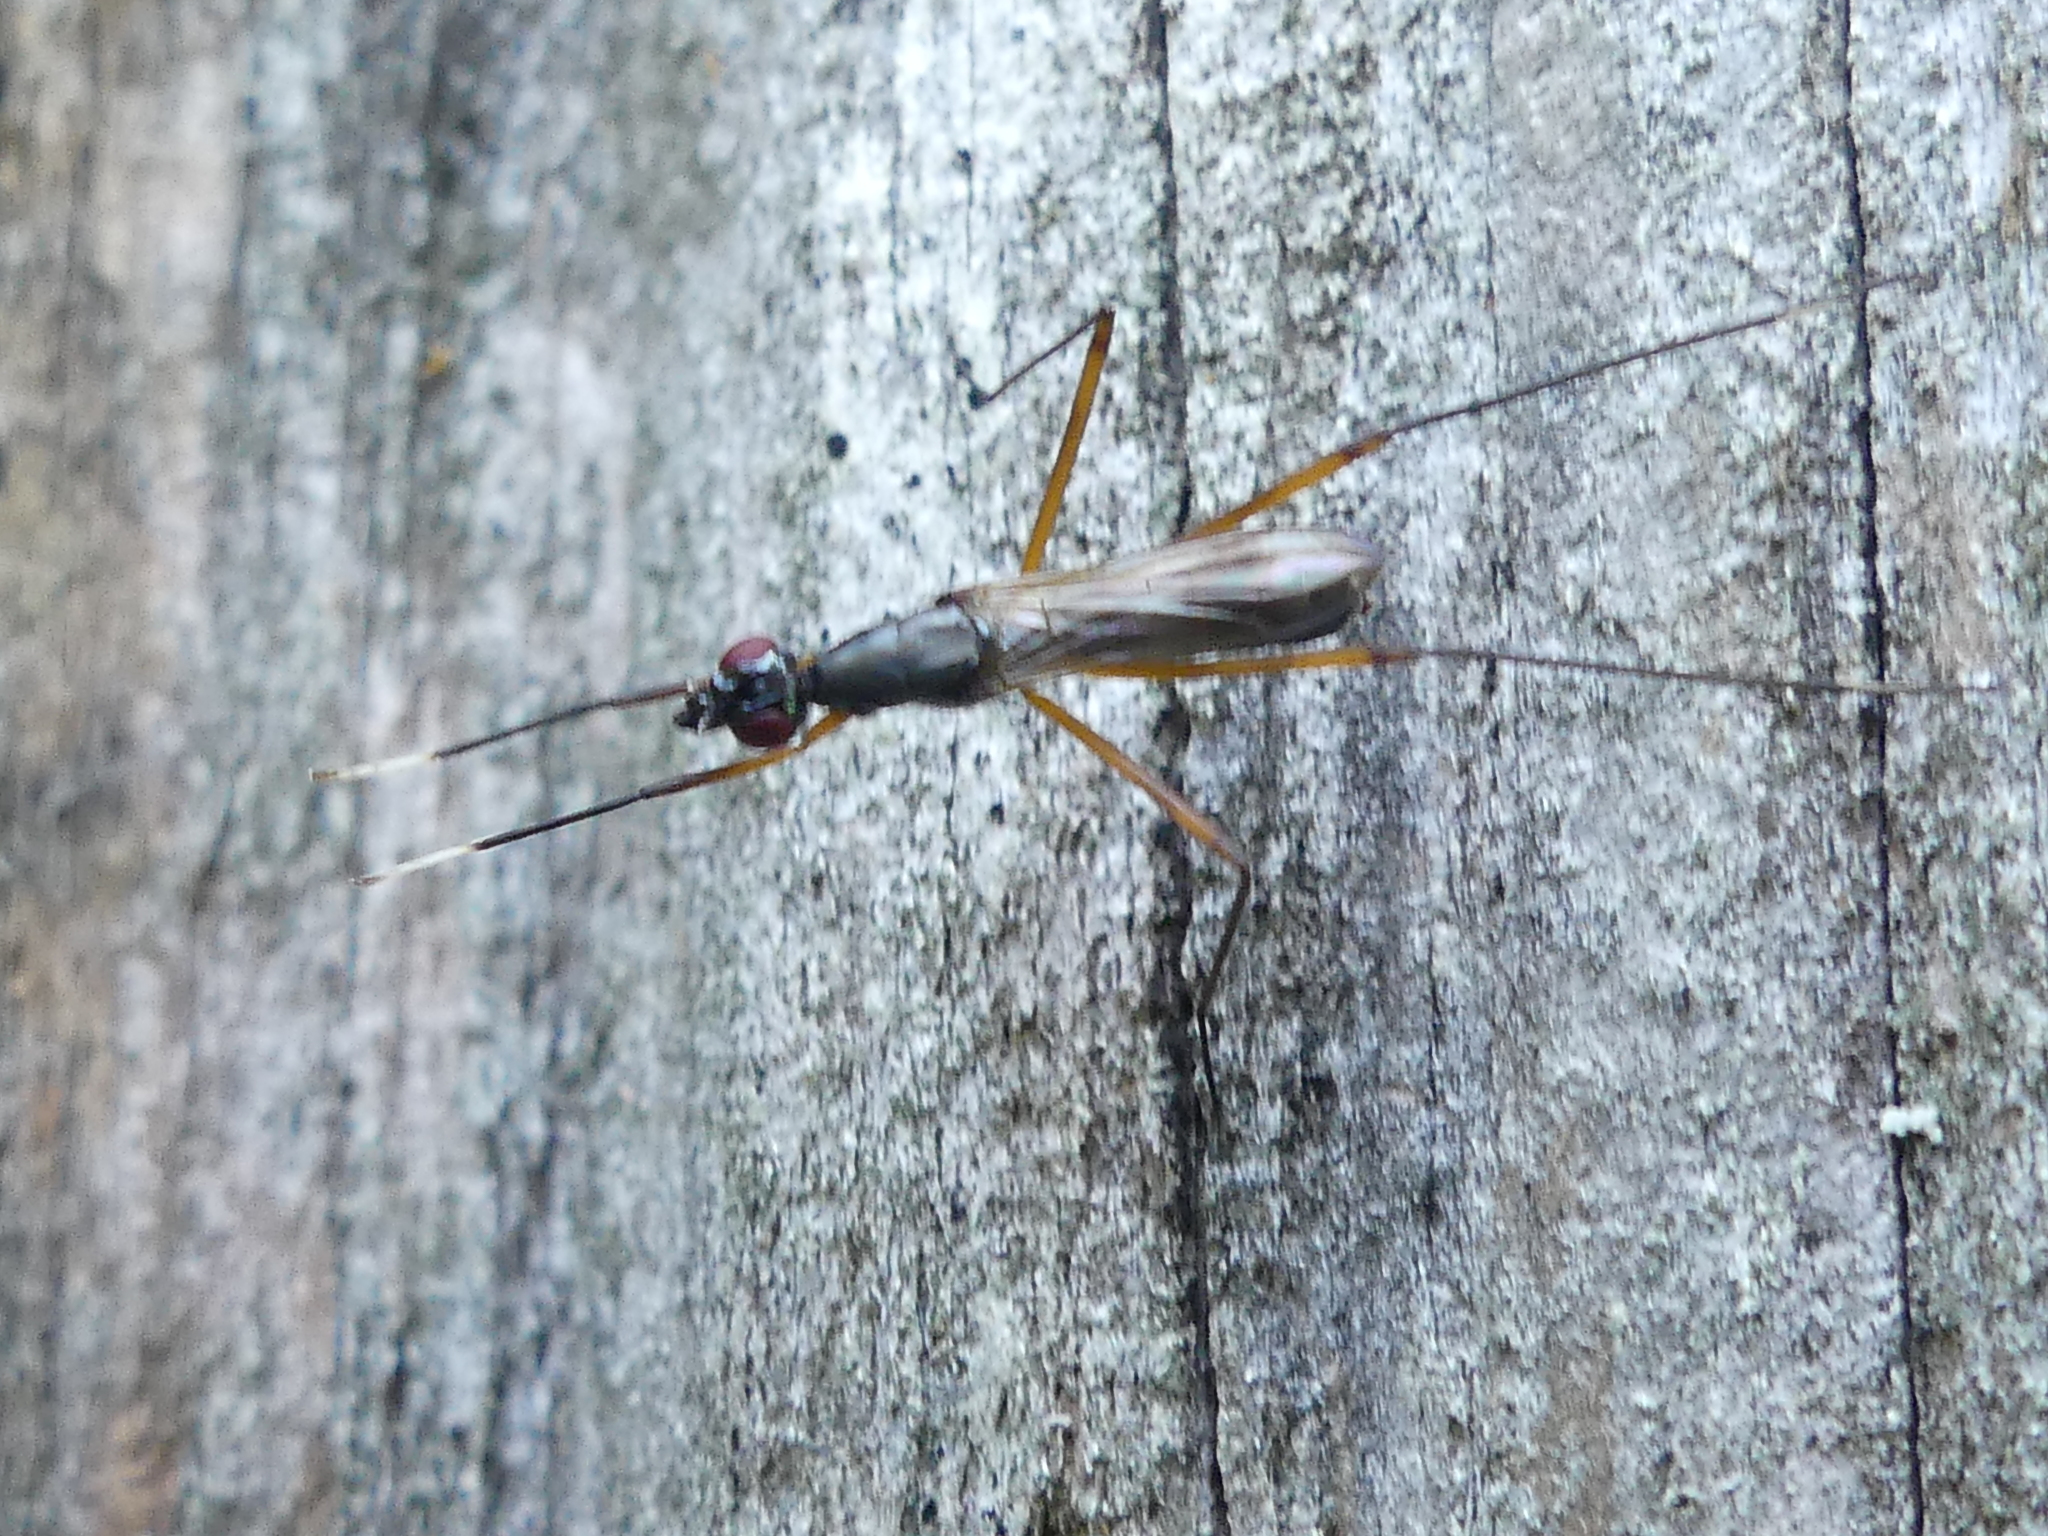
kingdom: Animalia
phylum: Arthropoda
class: Insecta
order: Diptera
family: Micropezidae
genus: Rainieria
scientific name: Rainieria antennaepes
